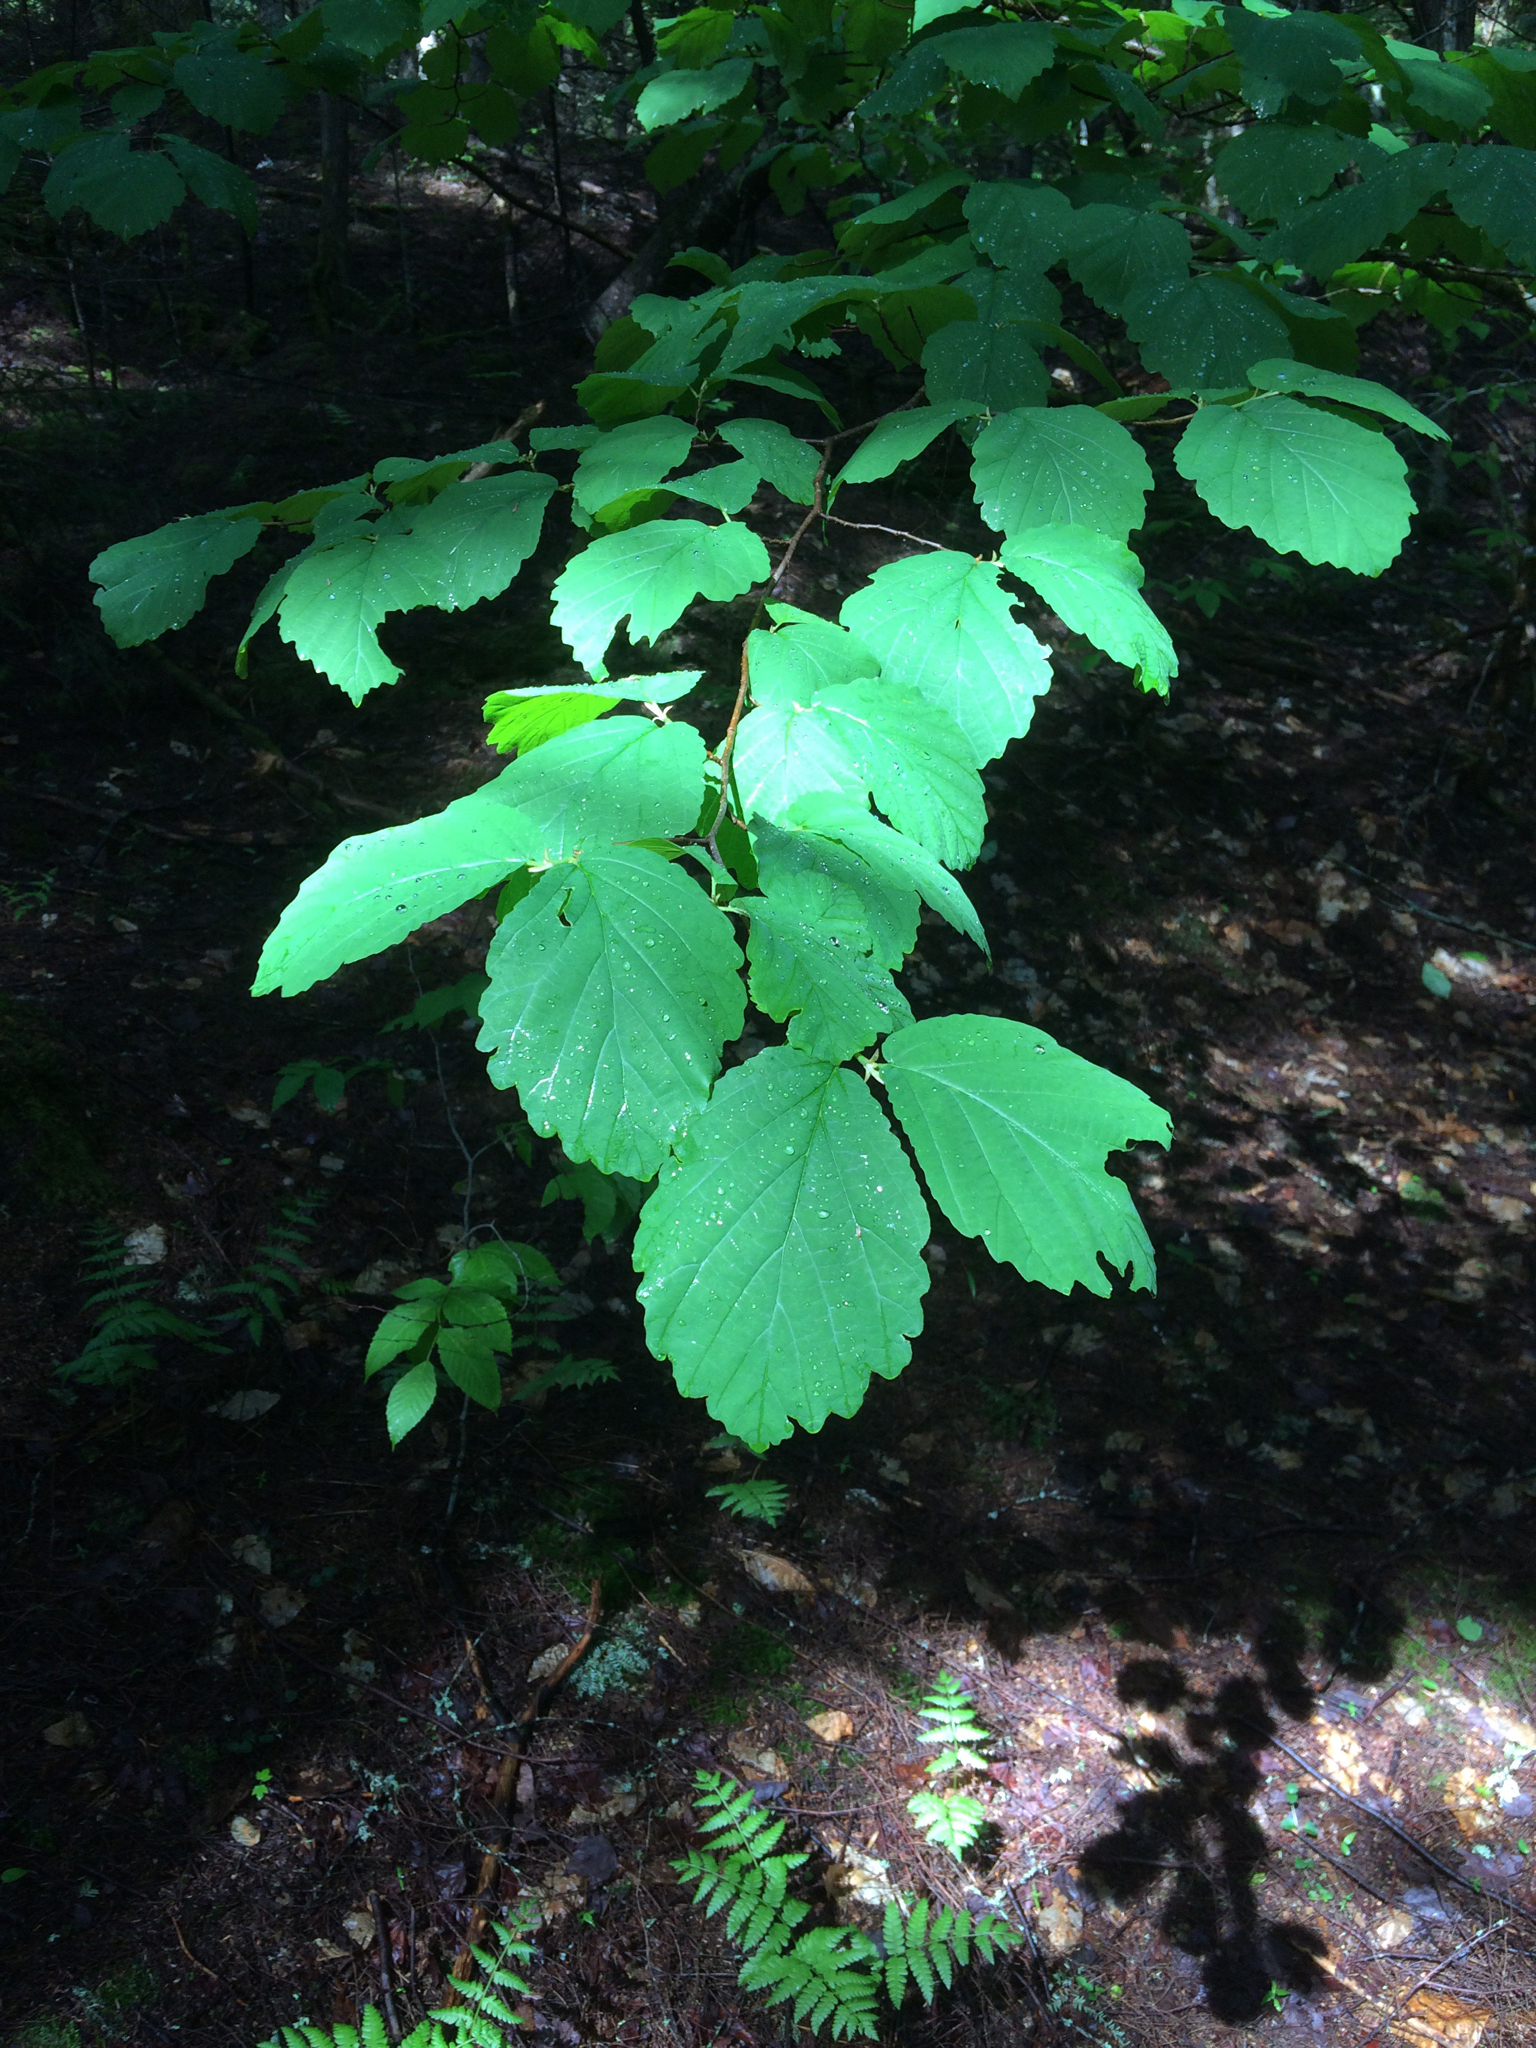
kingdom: Plantae
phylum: Tracheophyta
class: Magnoliopsida
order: Saxifragales
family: Hamamelidaceae
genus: Hamamelis
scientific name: Hamamelis virginiana
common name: Witch-hazel
